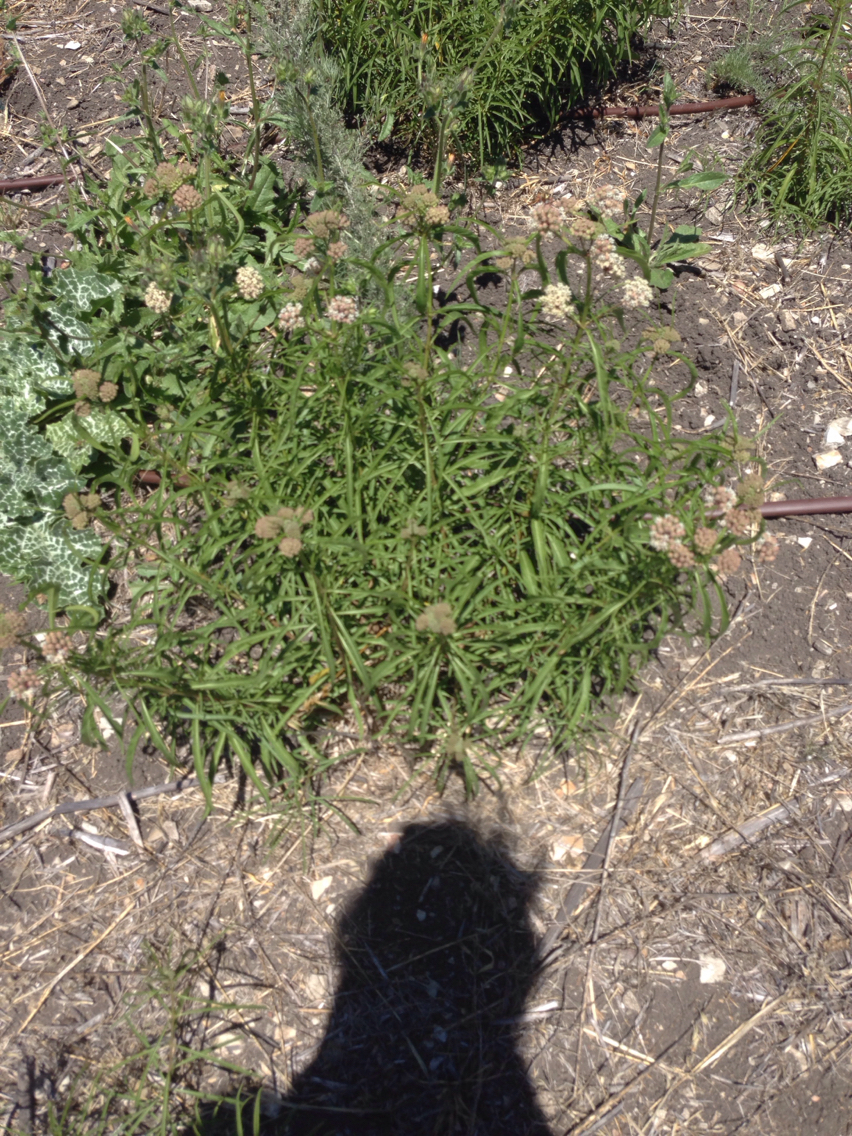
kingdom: Plantae
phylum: Tracheophyta
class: Magnoliopsida
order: Gentianales
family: Apocynaceae
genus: Asclepias
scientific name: Asclepias fascicularis
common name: Mexican milkweed
